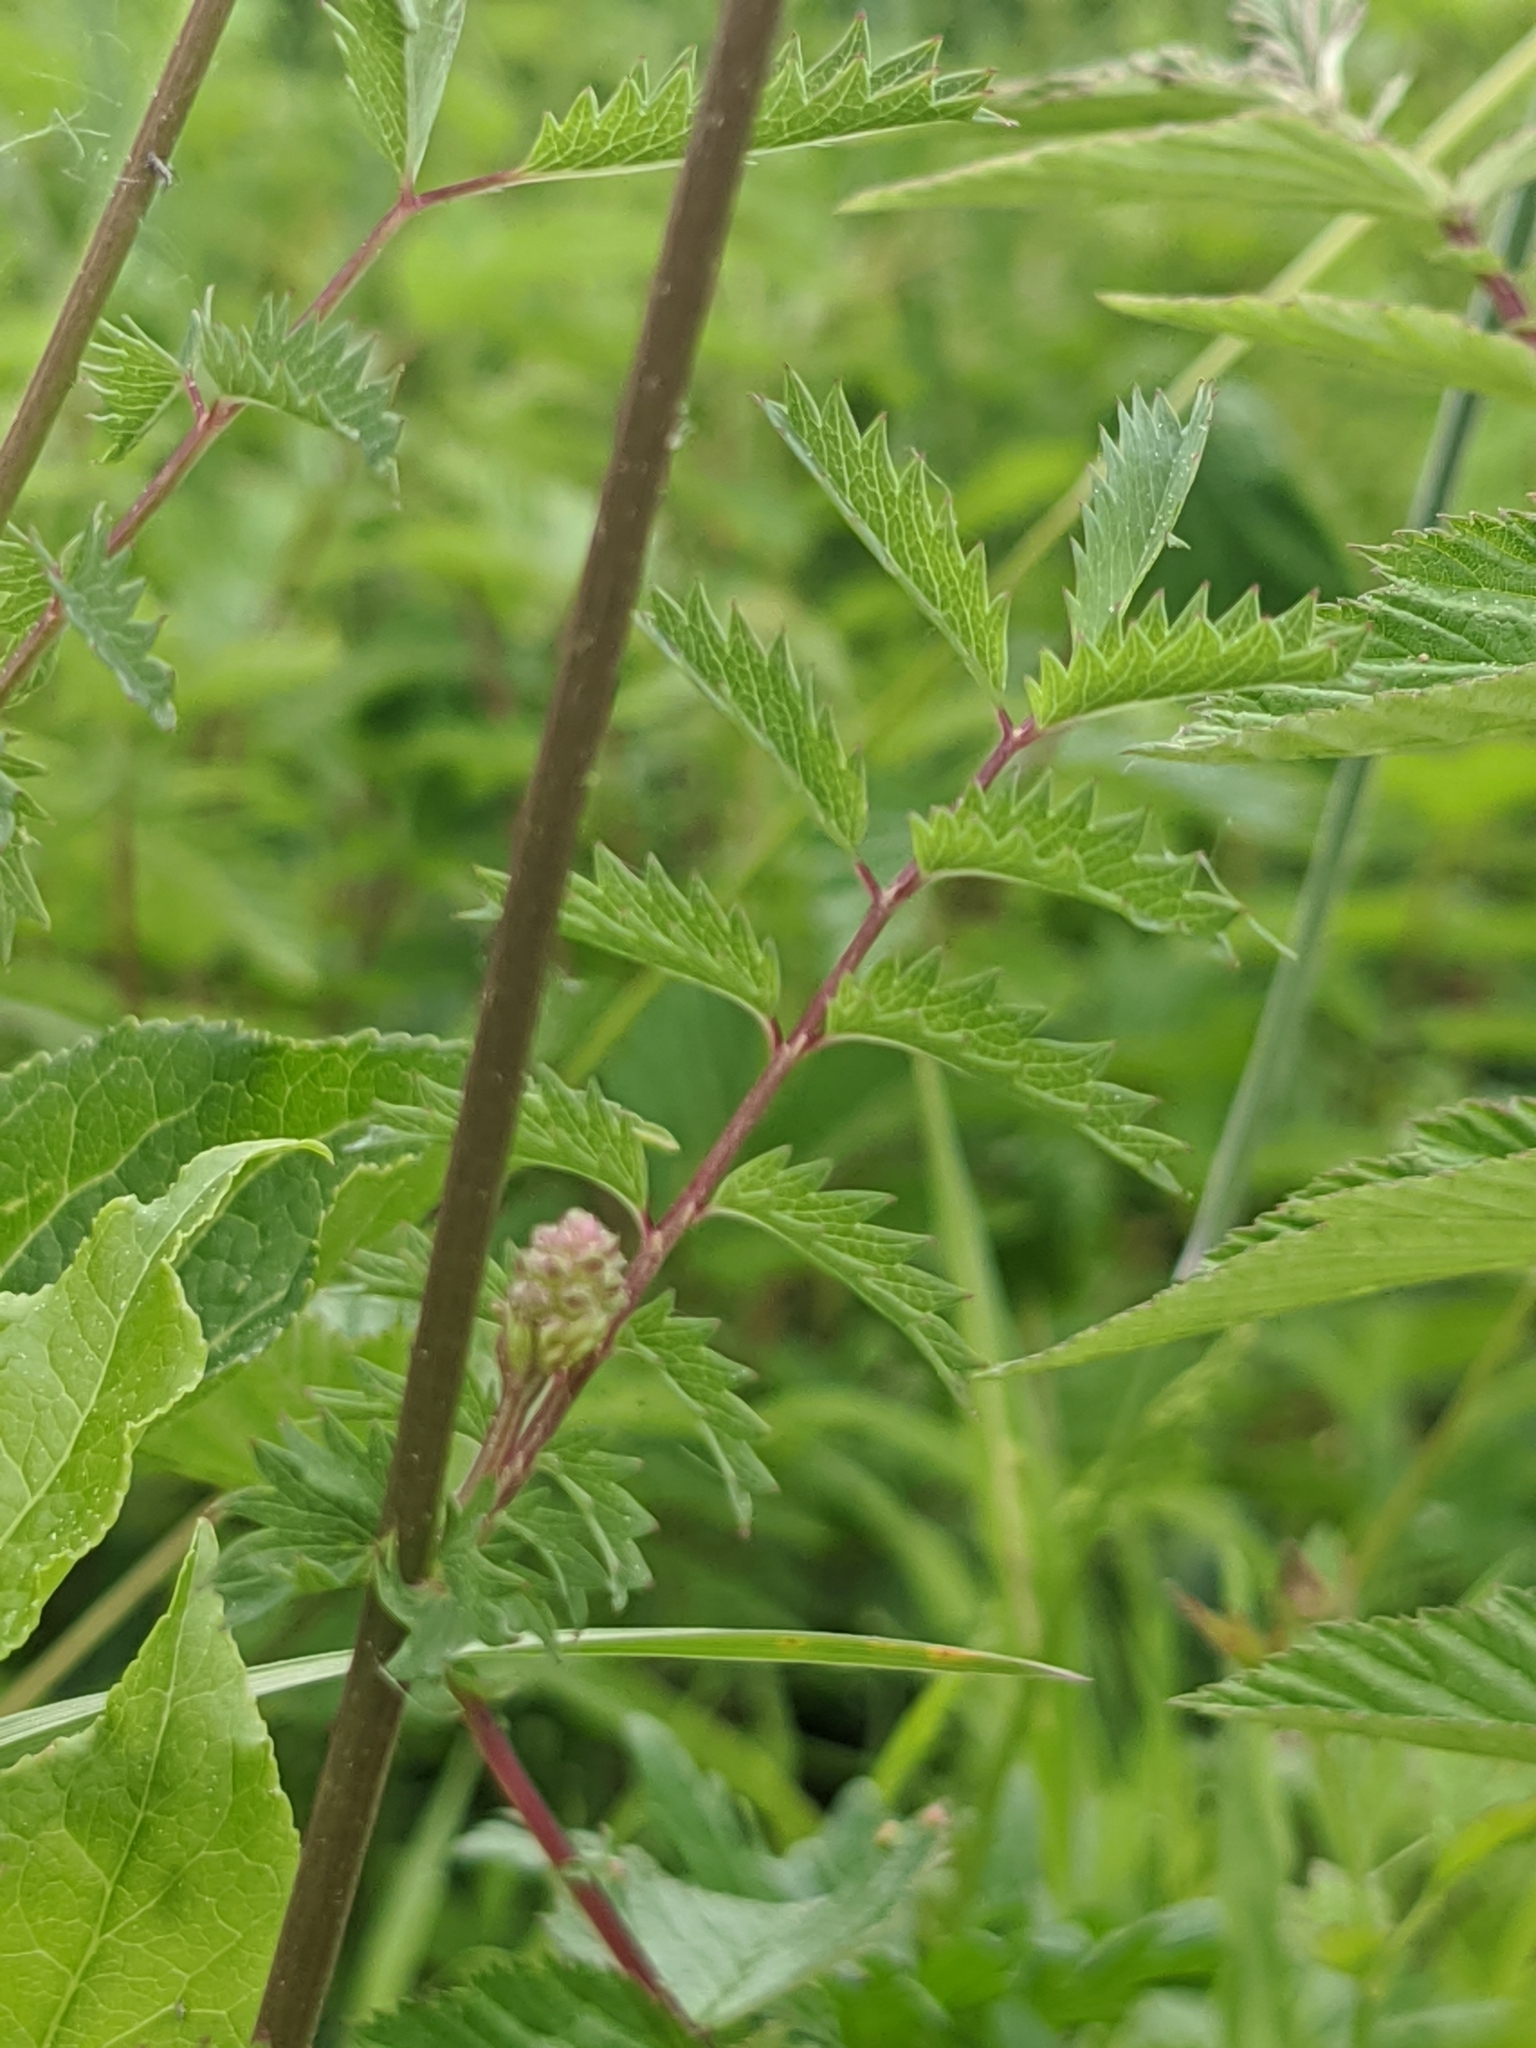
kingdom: Plantae
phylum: Tracheophyta
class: Magnoliopsida
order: Rosales
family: Rosaceae
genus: Poterium
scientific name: Poterium sanguisorba
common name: Salad burnet
